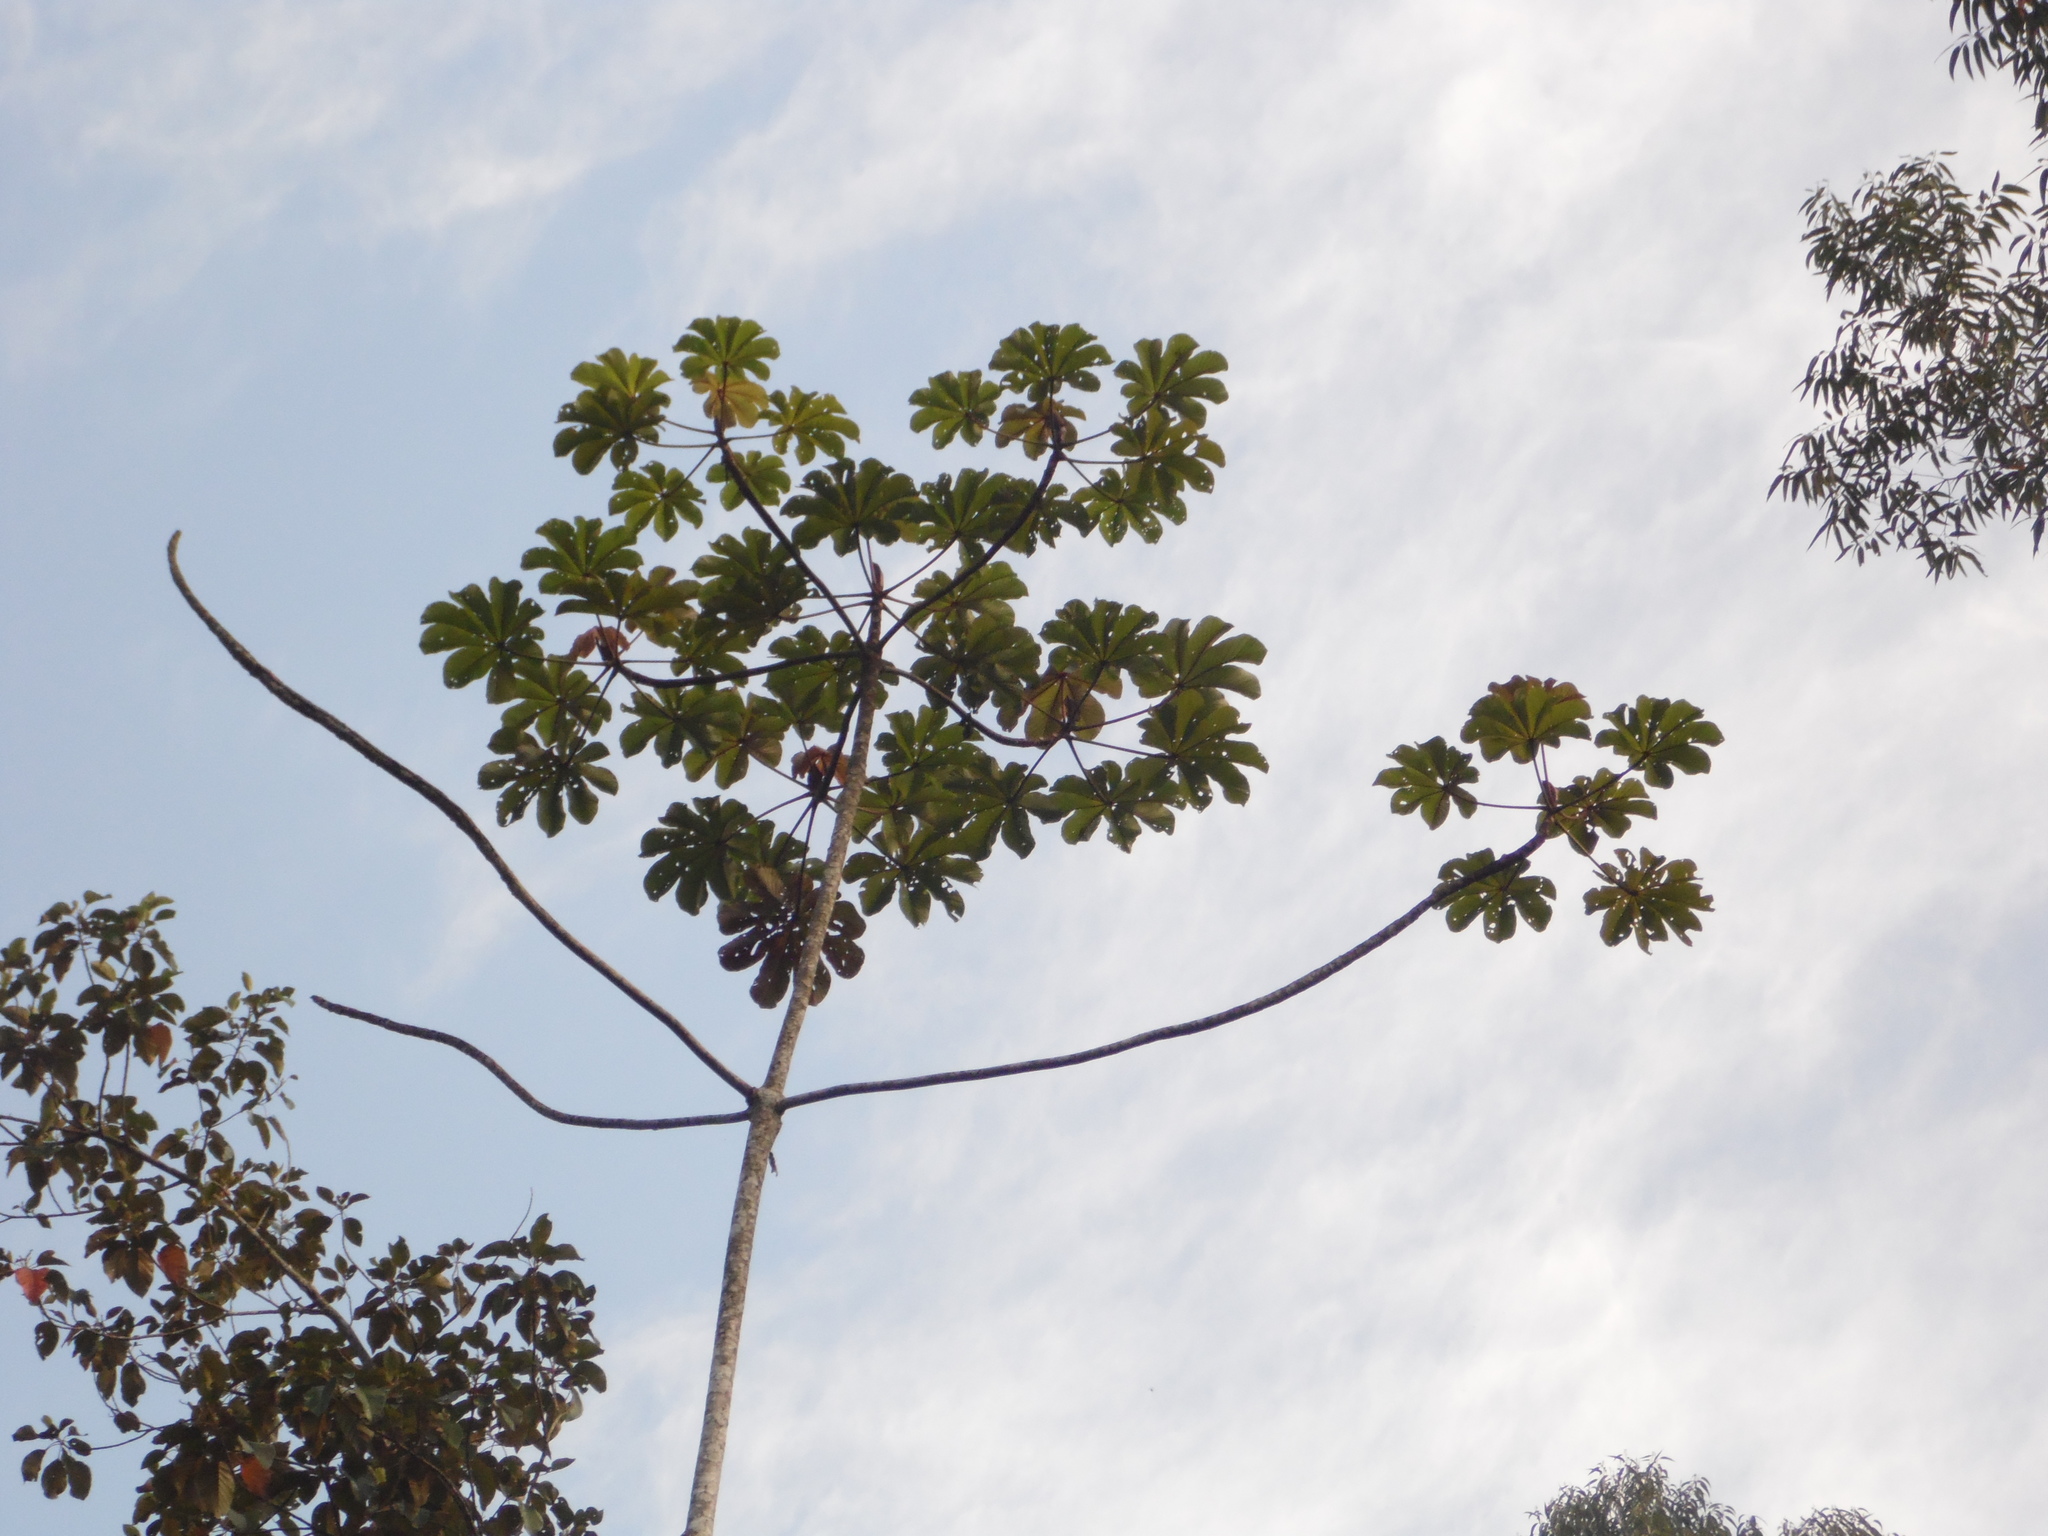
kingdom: Plantae
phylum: Tracheophyta
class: Magnoliopsida
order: Rosales
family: Urticaceae
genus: Cecropia
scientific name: Cecropia glaziovii
